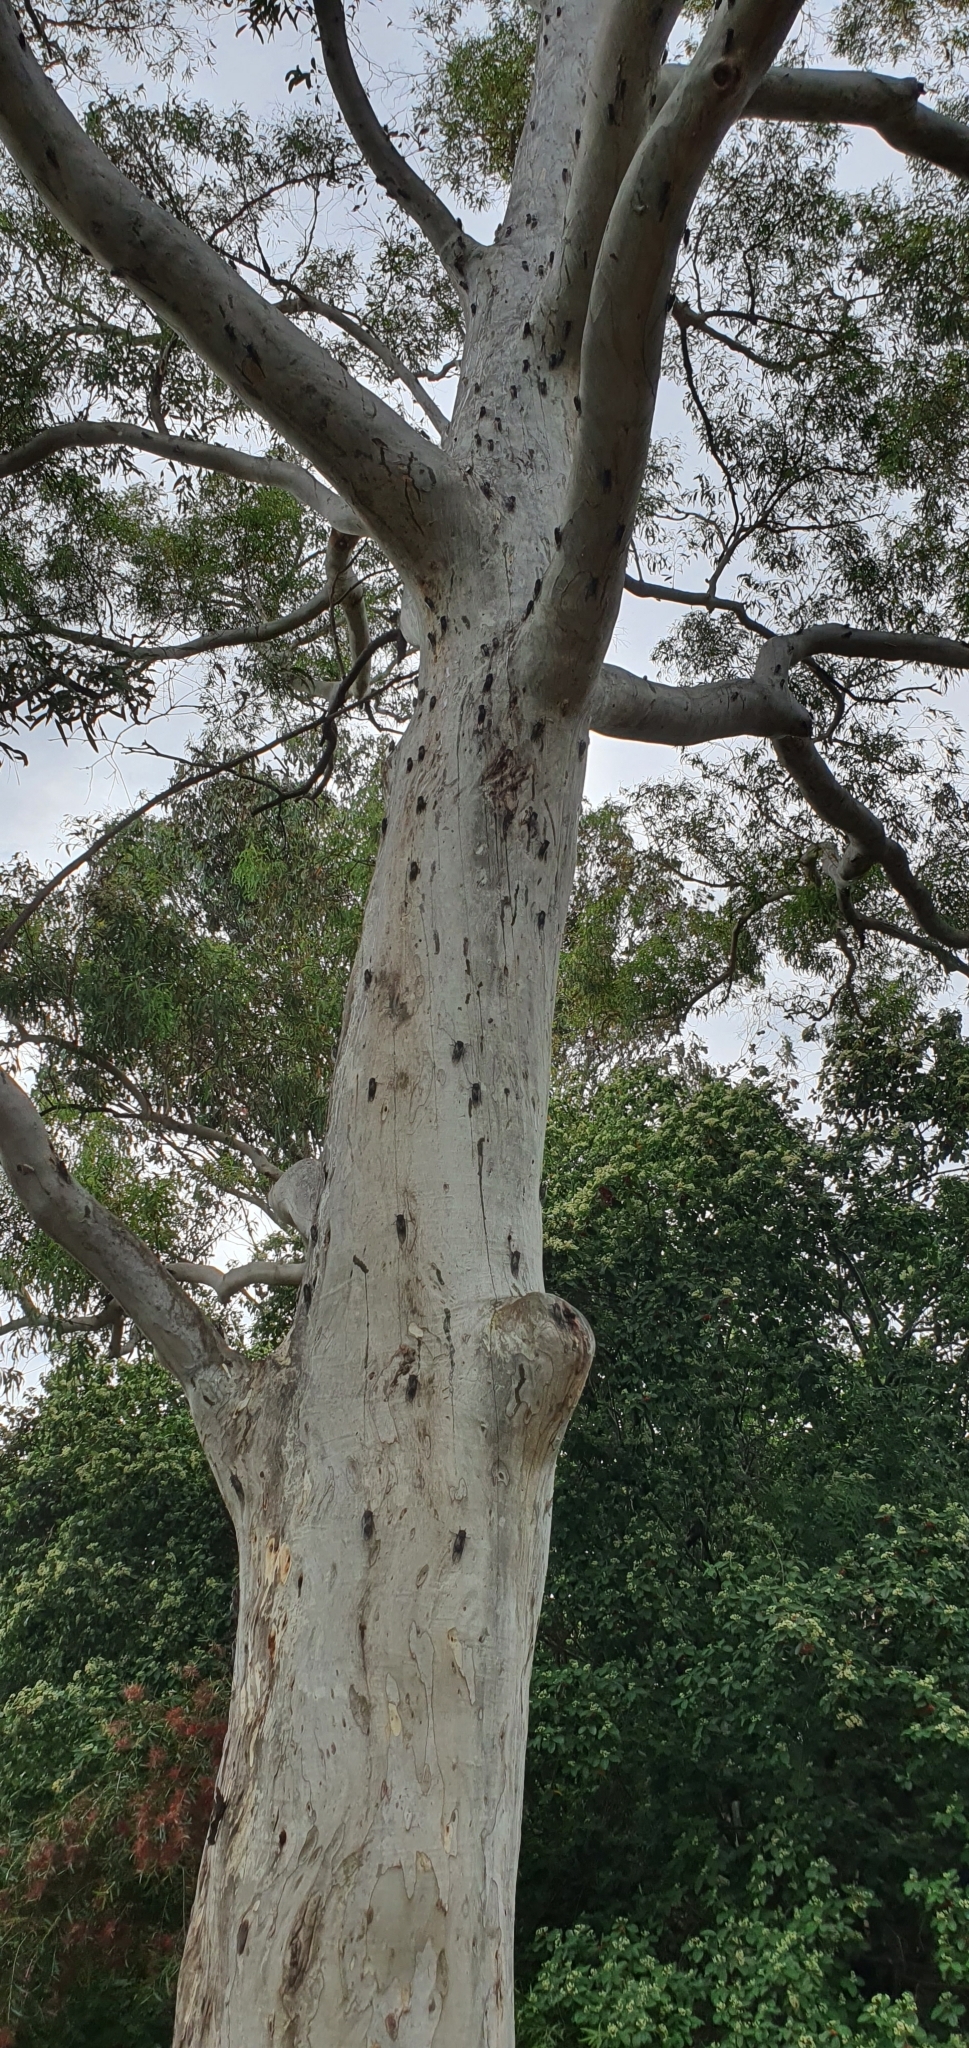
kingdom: Animalia
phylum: Arthropoda
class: Insecta
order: Hemiptera
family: Cicadidae
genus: Psaltoda
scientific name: Psaltoda moerens
